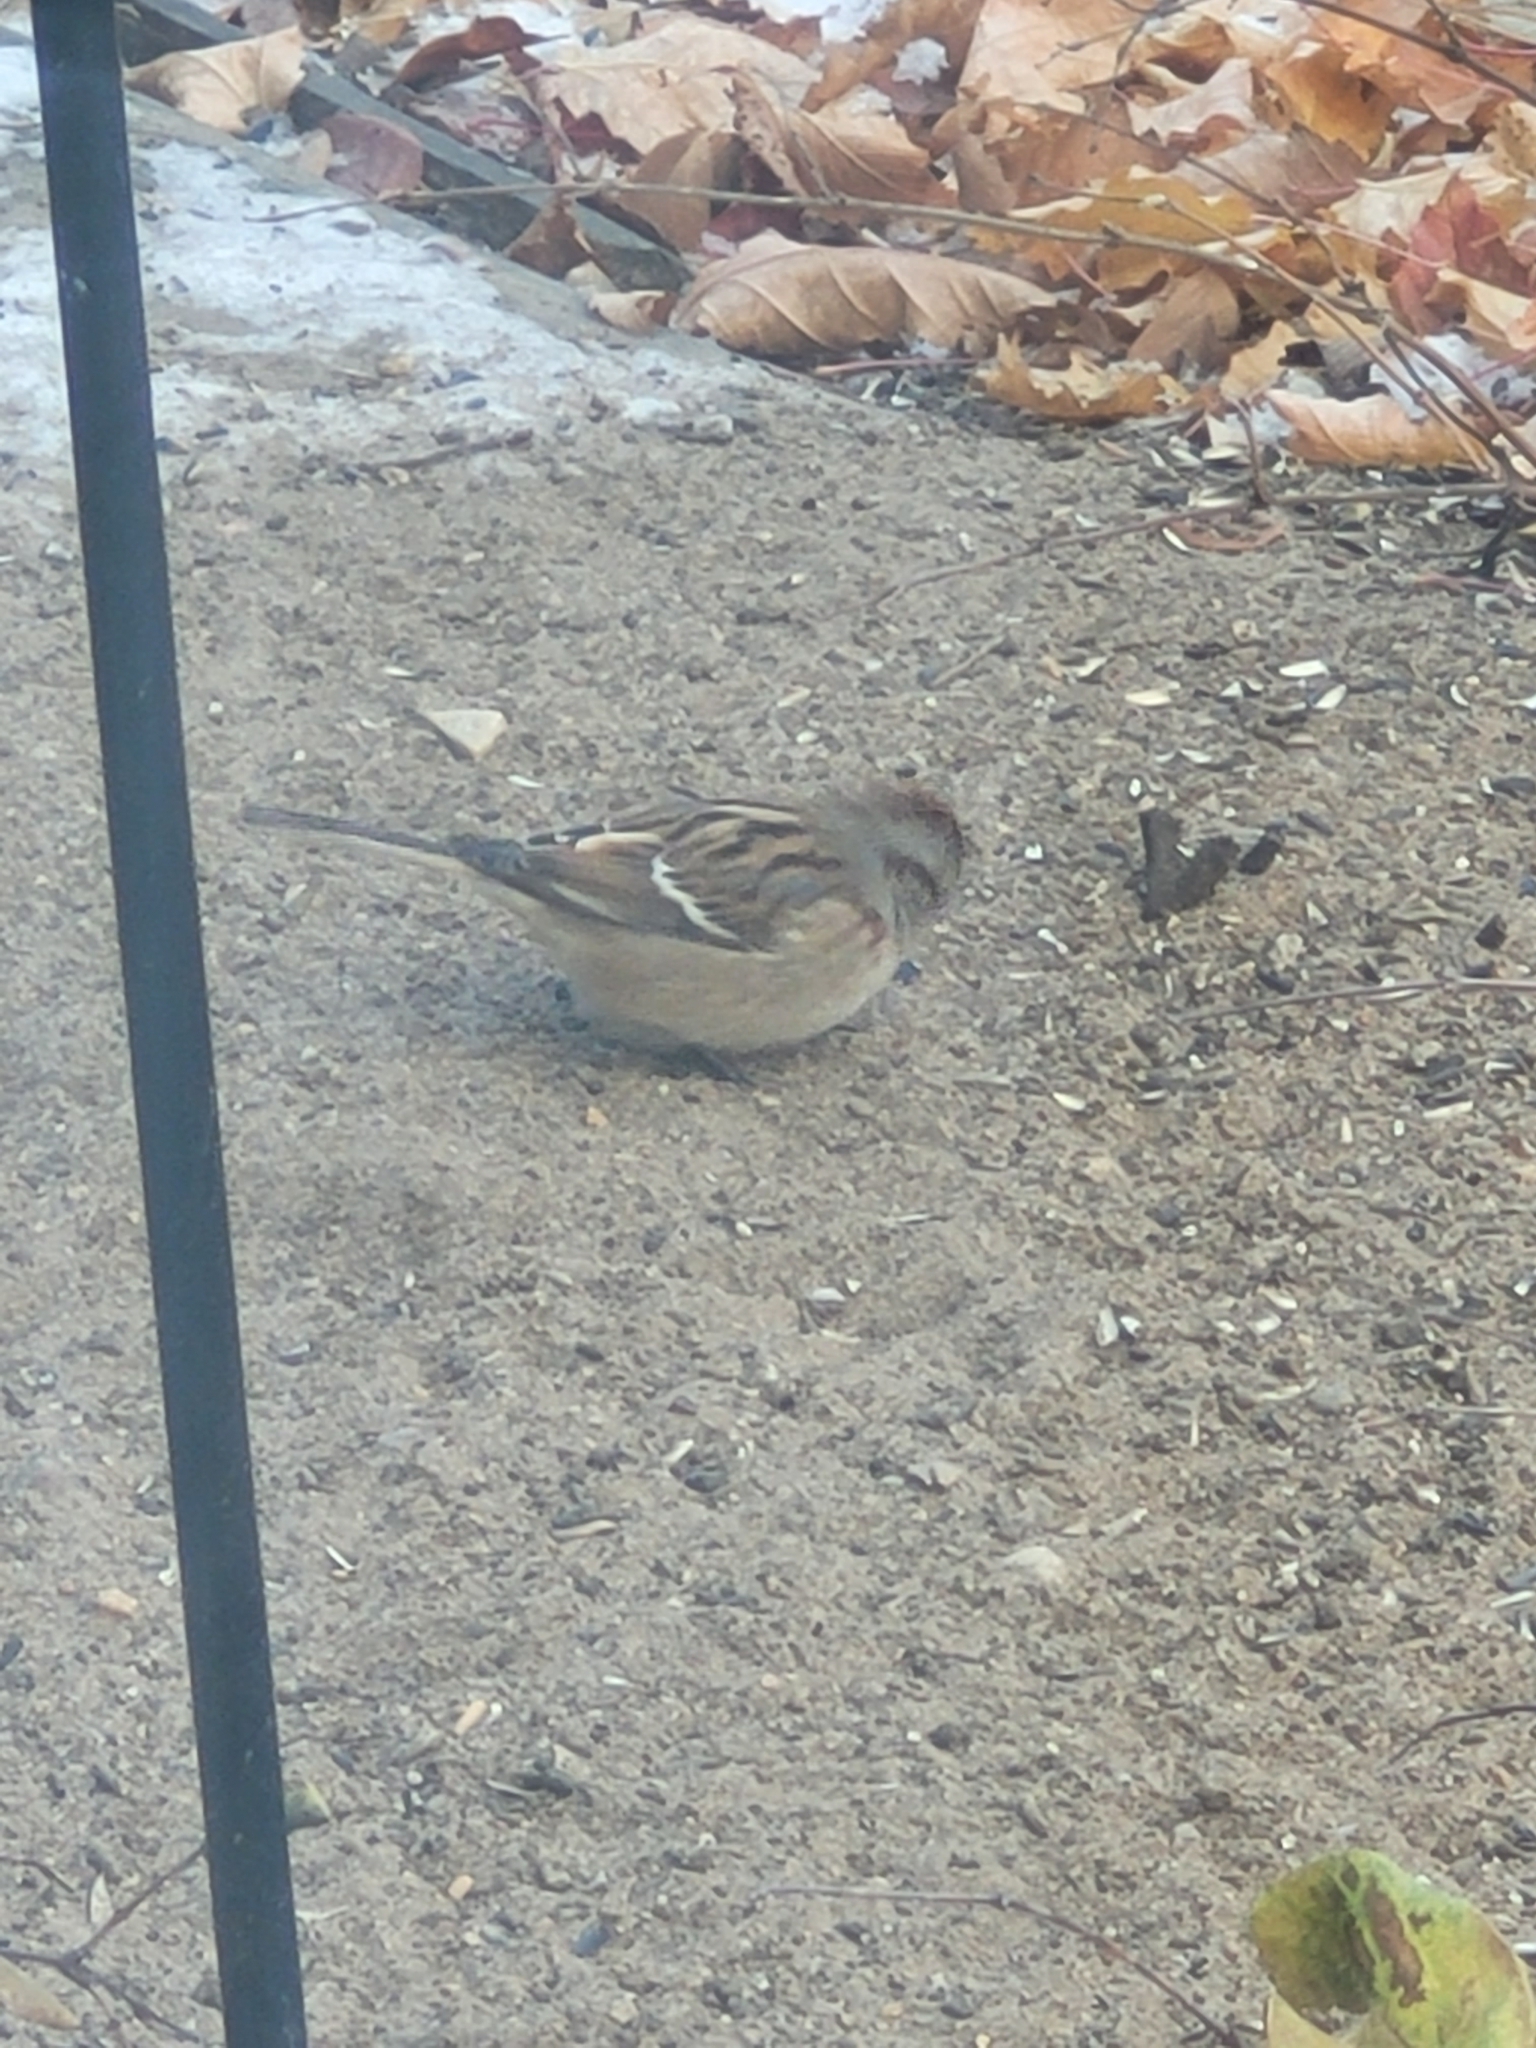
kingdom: Animalia
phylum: Chordata
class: Aves
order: Passeriformes
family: Passerellidae
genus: Spizelloides
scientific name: Spizelloides arborea
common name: American tree sparrow
